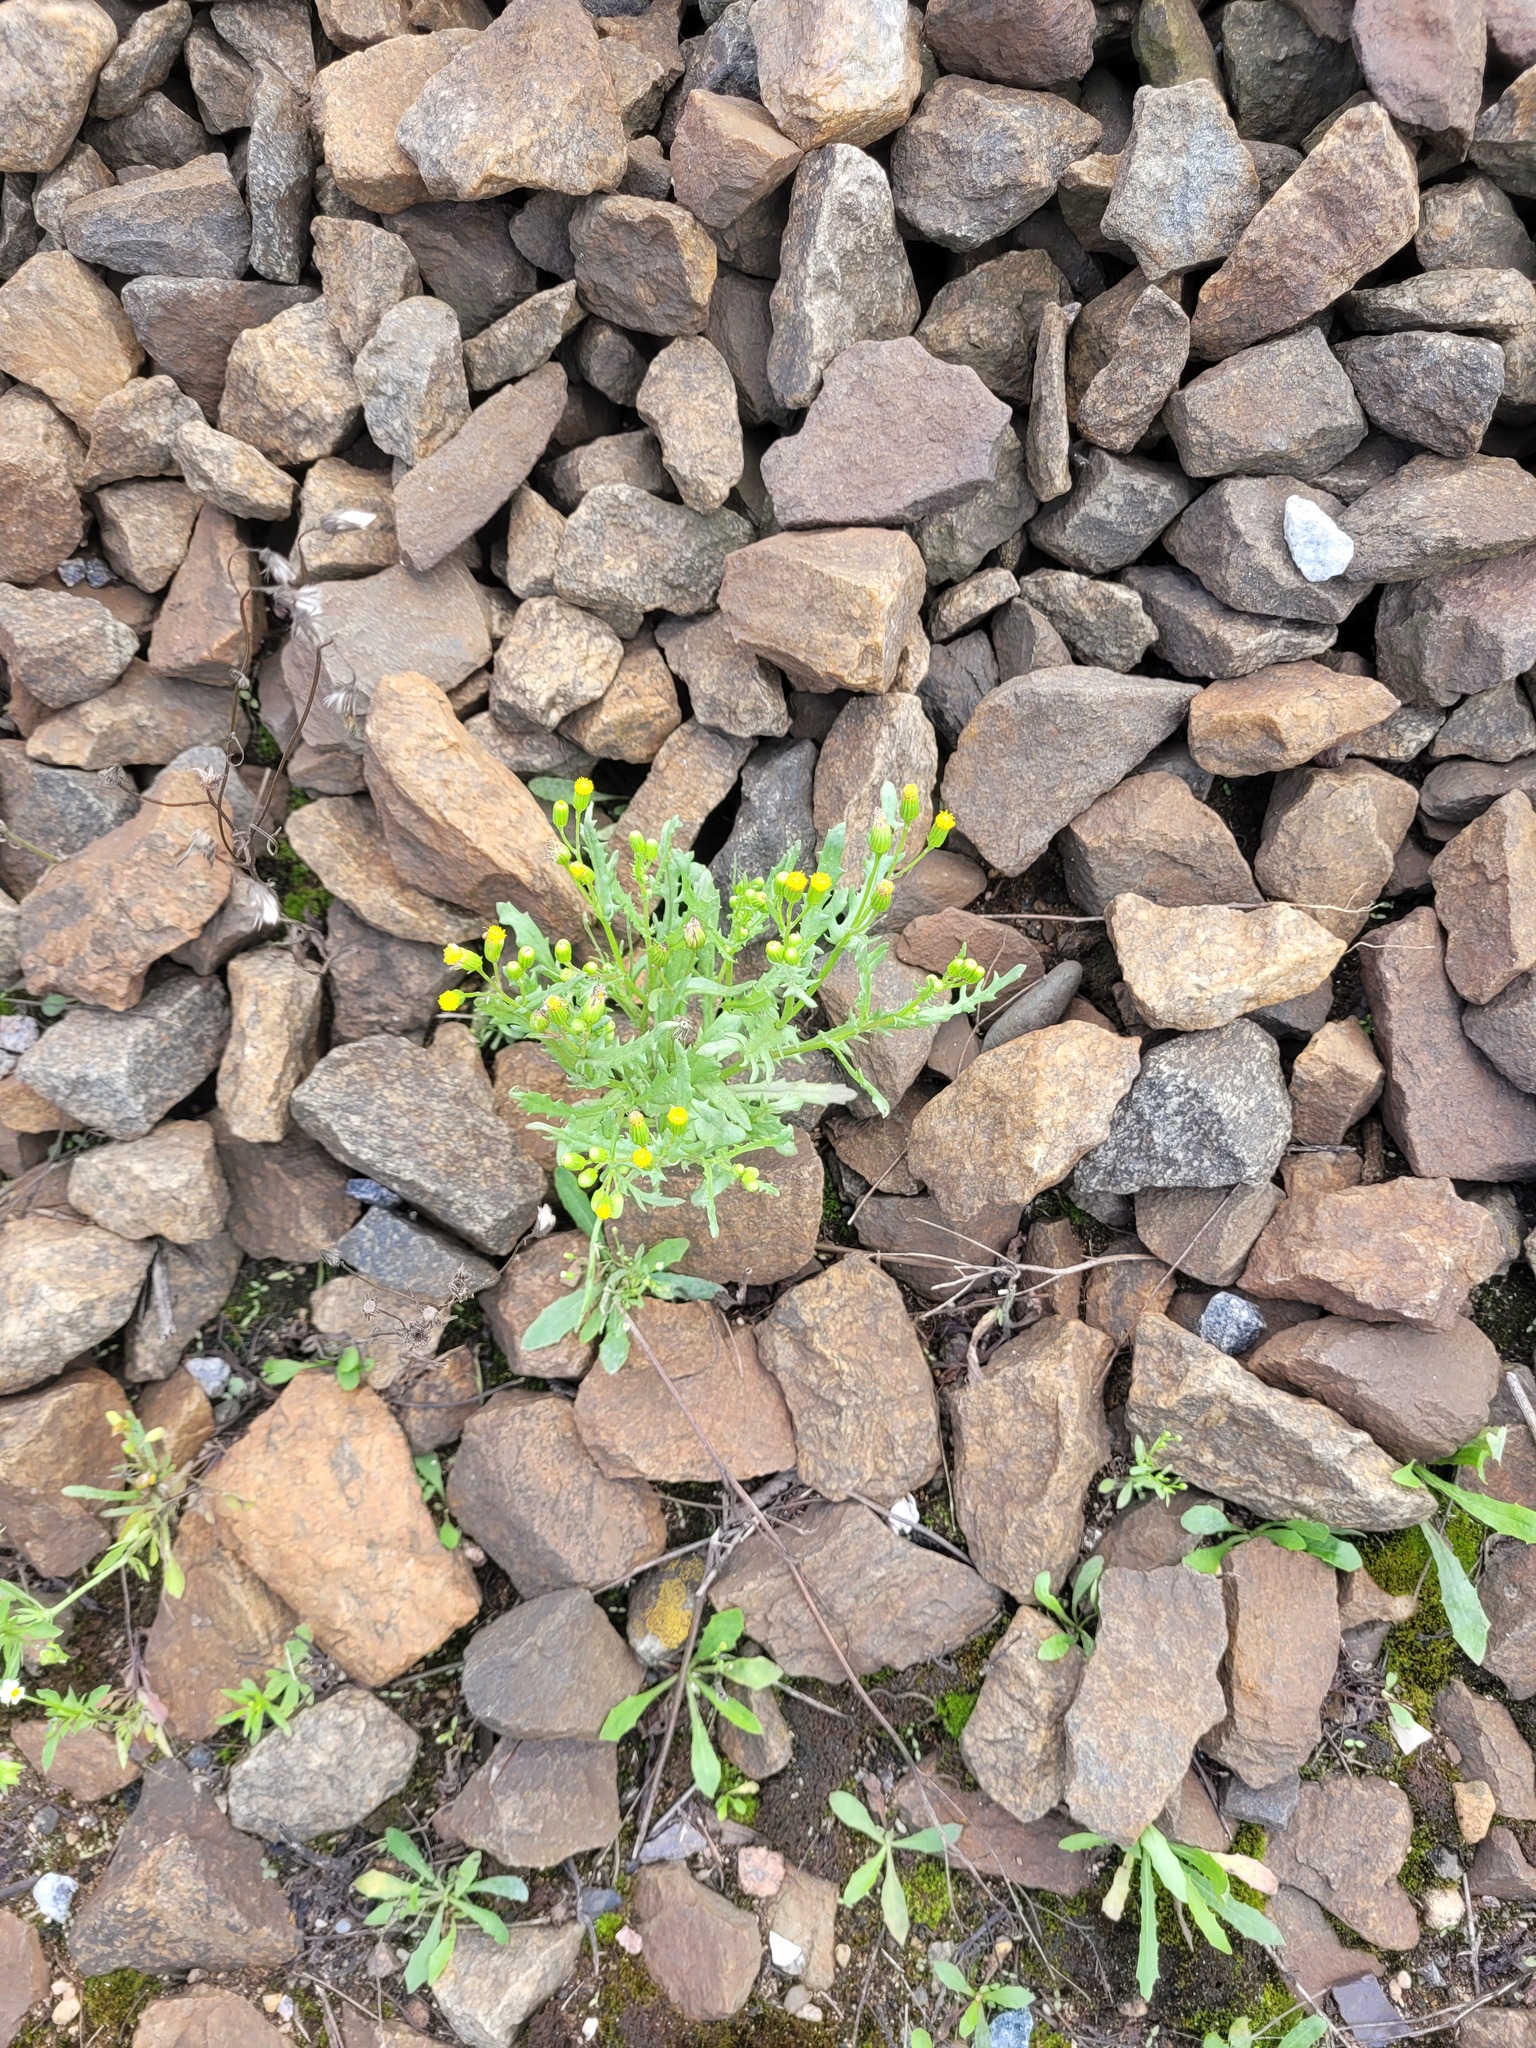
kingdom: Plantae
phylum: Tracheophyta
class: Magnoliopsida
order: Asterales
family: Asteraceae
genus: Senecio
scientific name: Senecio dubitabilis
